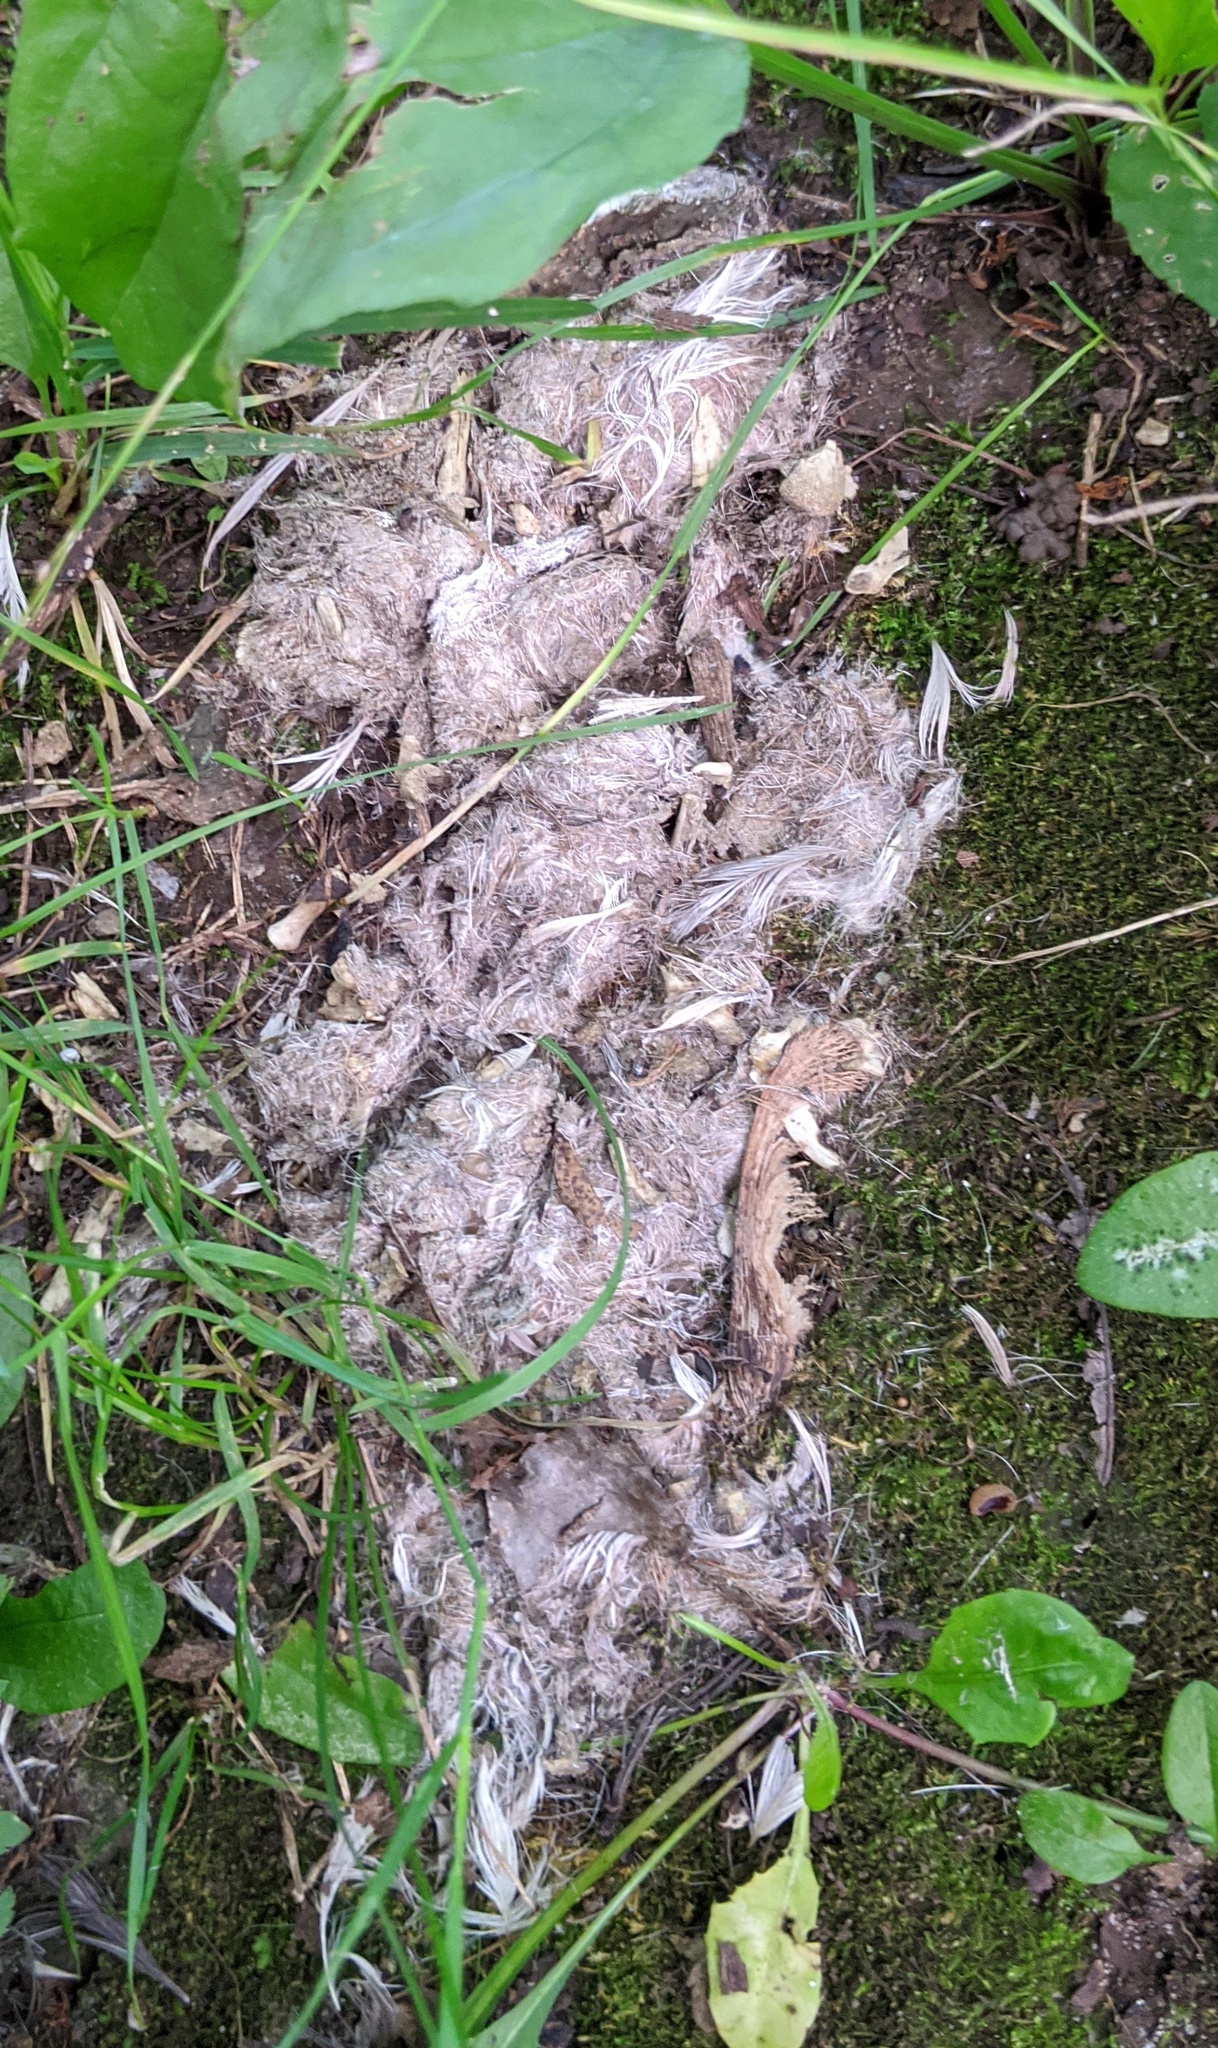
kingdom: Animalia
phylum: Chordata
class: Mammalia
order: Carnivora
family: Canidae
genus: Canis
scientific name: Canis latrans
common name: Coyote
